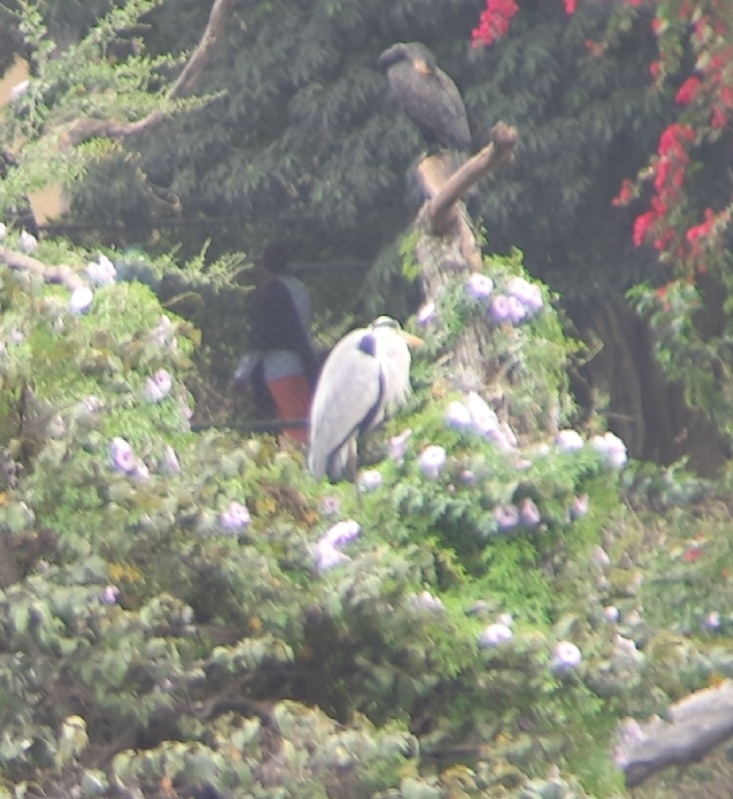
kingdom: Animalia
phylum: Chordata
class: Aves
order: Pelecaniformes
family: Ardeidae
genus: Ardea
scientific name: Ardea cinerea
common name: Grey heron
